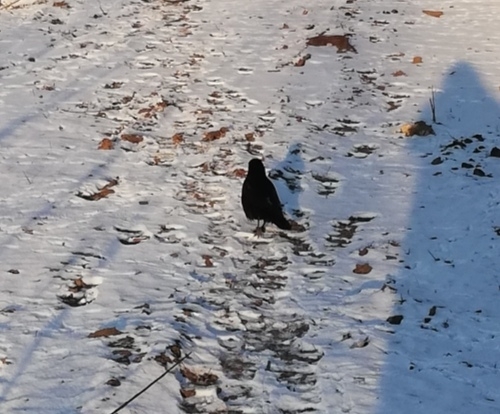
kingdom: Animalia
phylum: Chordata
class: Aves
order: Passeriformes
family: Corvidae
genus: Corvus
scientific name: Corvus frugilegus
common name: Rook
